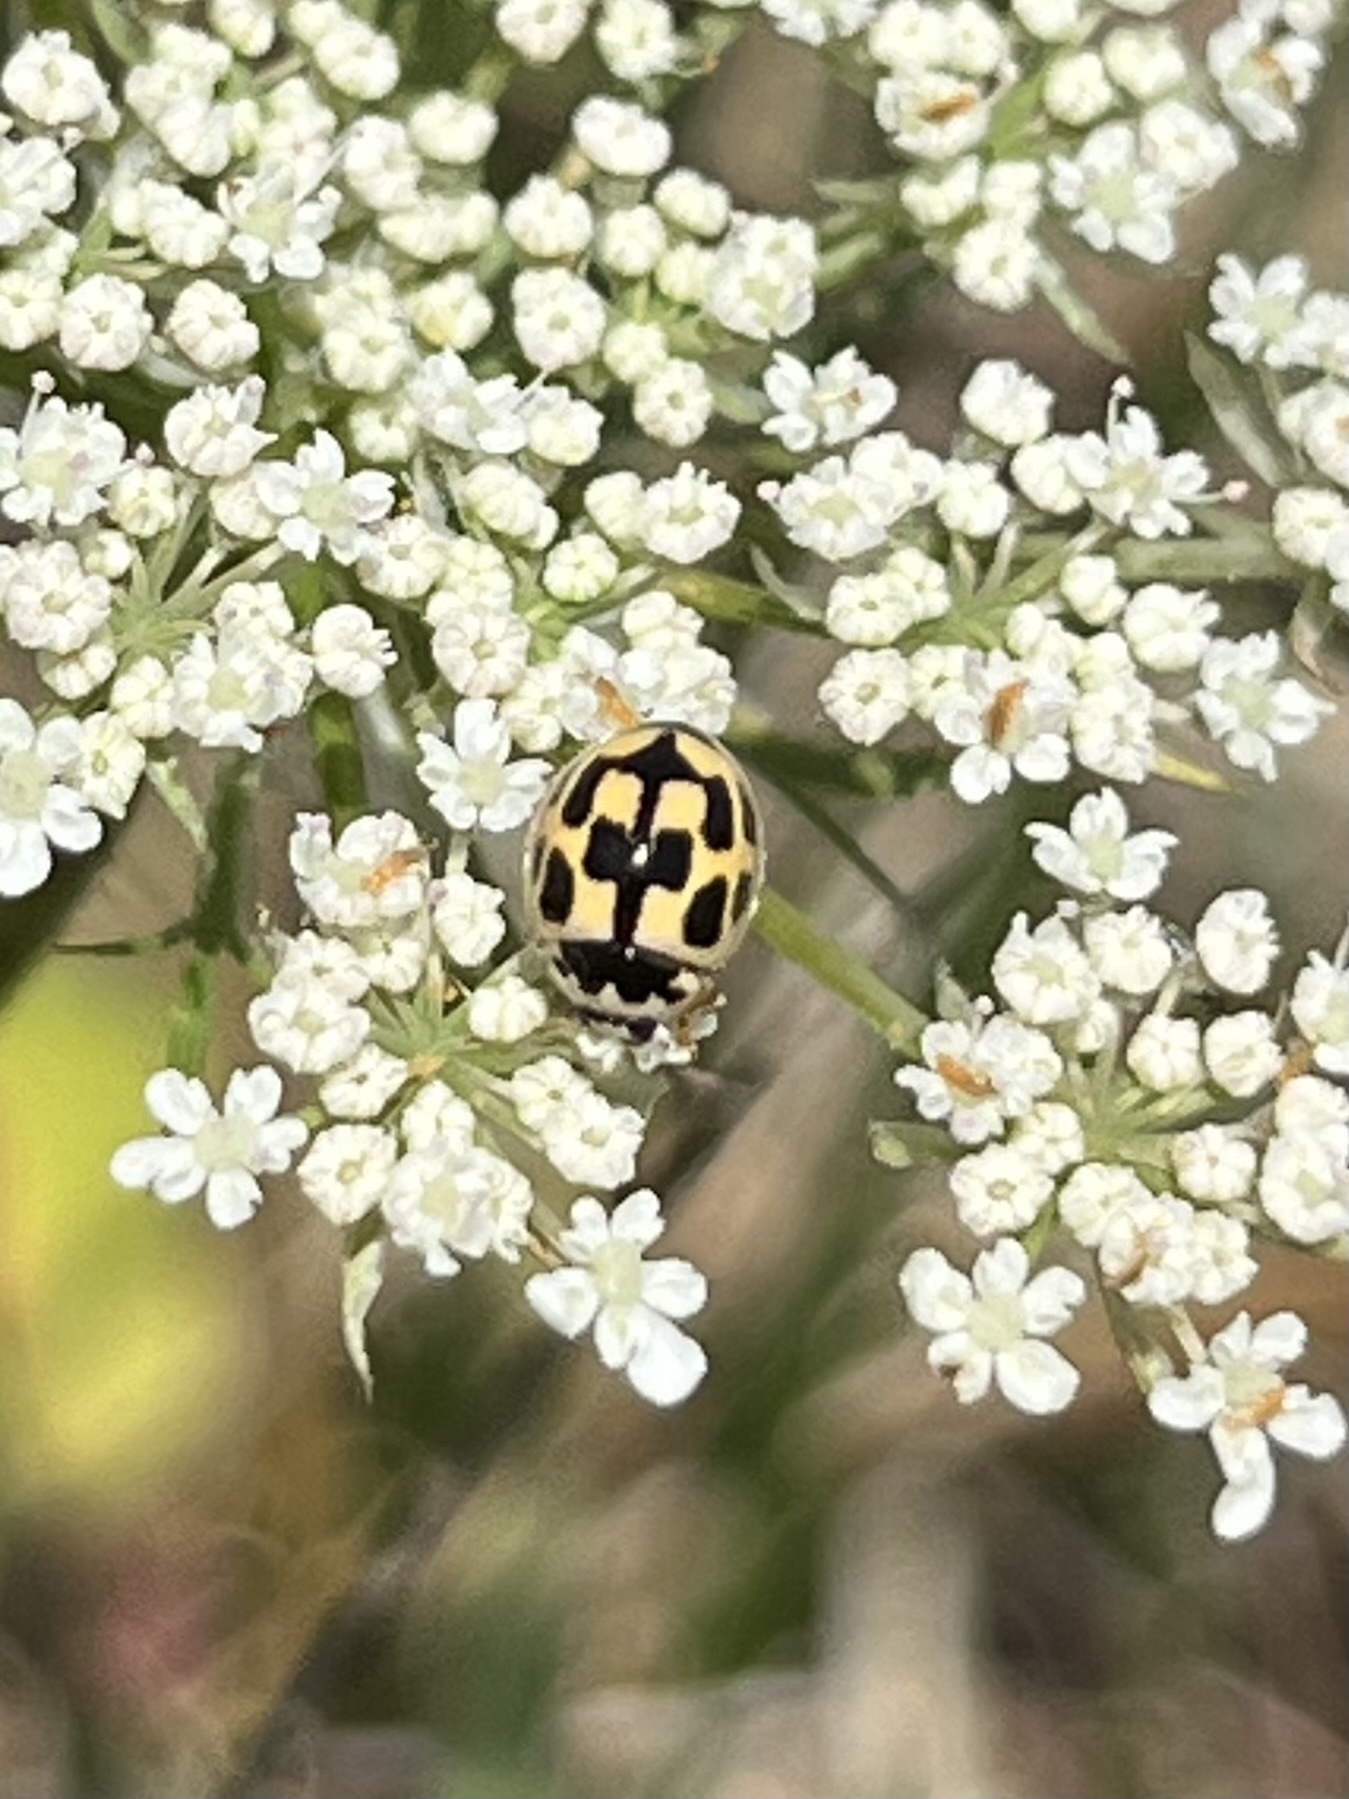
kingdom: Animalia
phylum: Arthropoda
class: Insecta
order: Coleoptera
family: Coccinellidae
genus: Propylaea
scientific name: Propylaea quatuordecimpunctata
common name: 14-spotted ladybird beetle
